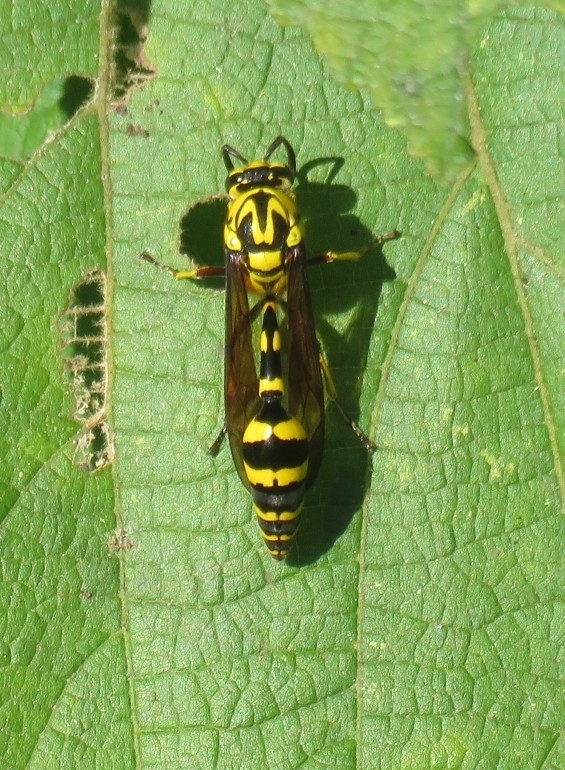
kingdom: Animalia
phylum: Arthropoda
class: Insecta
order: Hymenoptera
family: Eumenidae
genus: Phimenes
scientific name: Phimenes flavopictus
